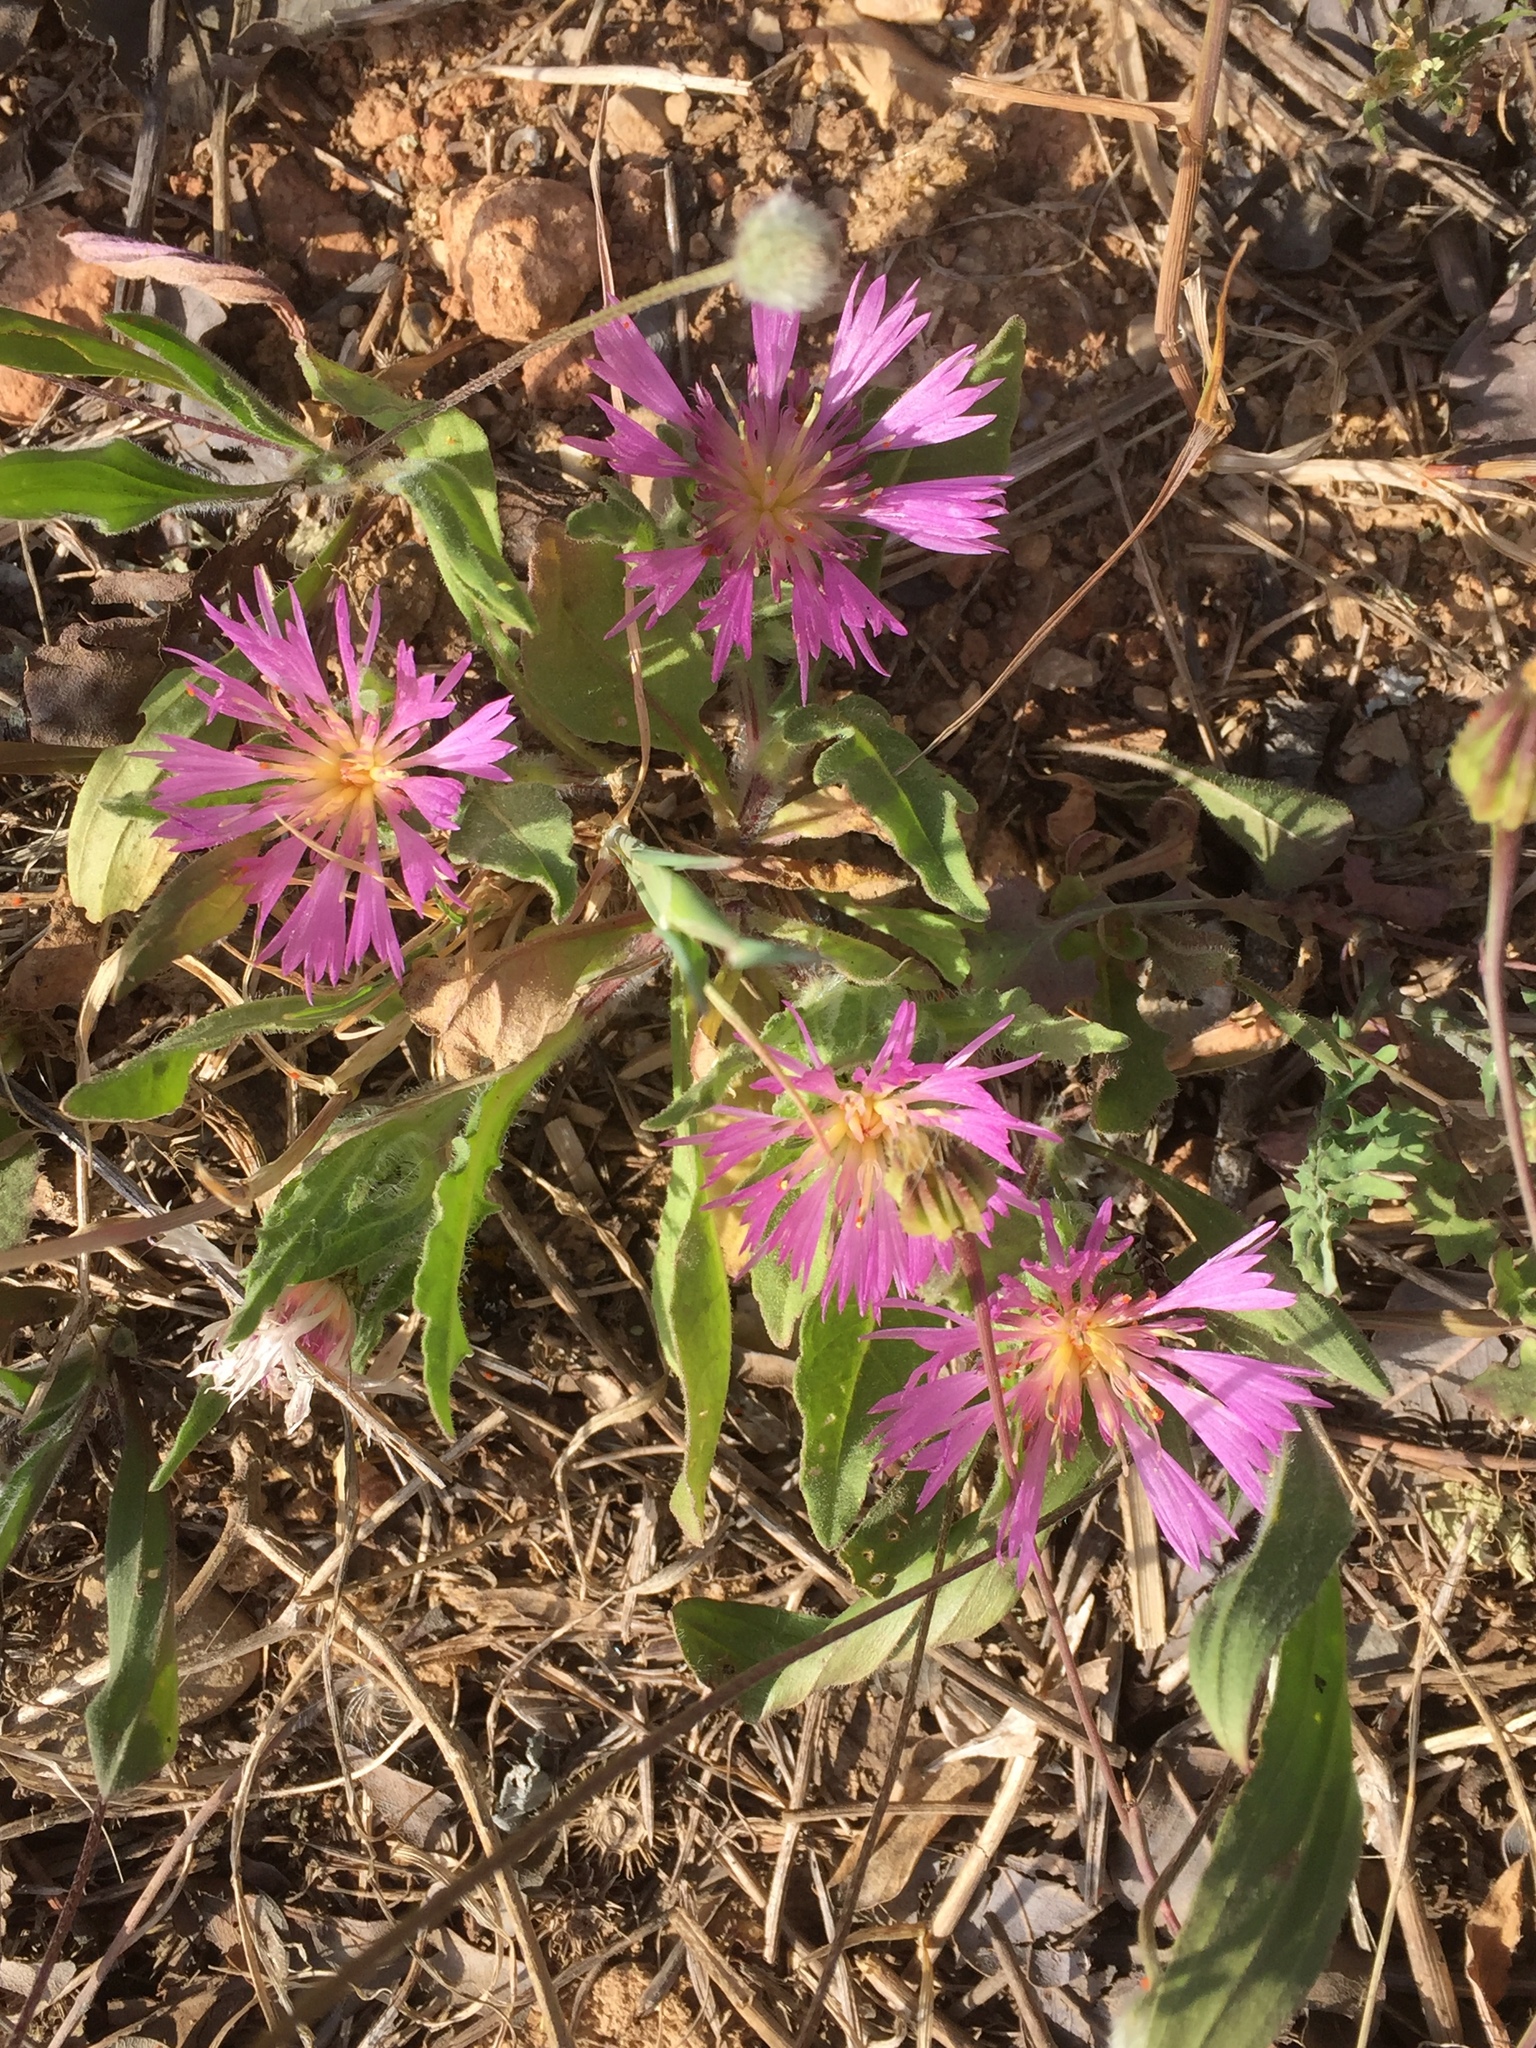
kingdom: Plantae
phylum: Tracheophyta
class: Magnoliopsida
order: Asterales
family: Asteraceae
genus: Centaurea
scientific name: Centaurea pullata
